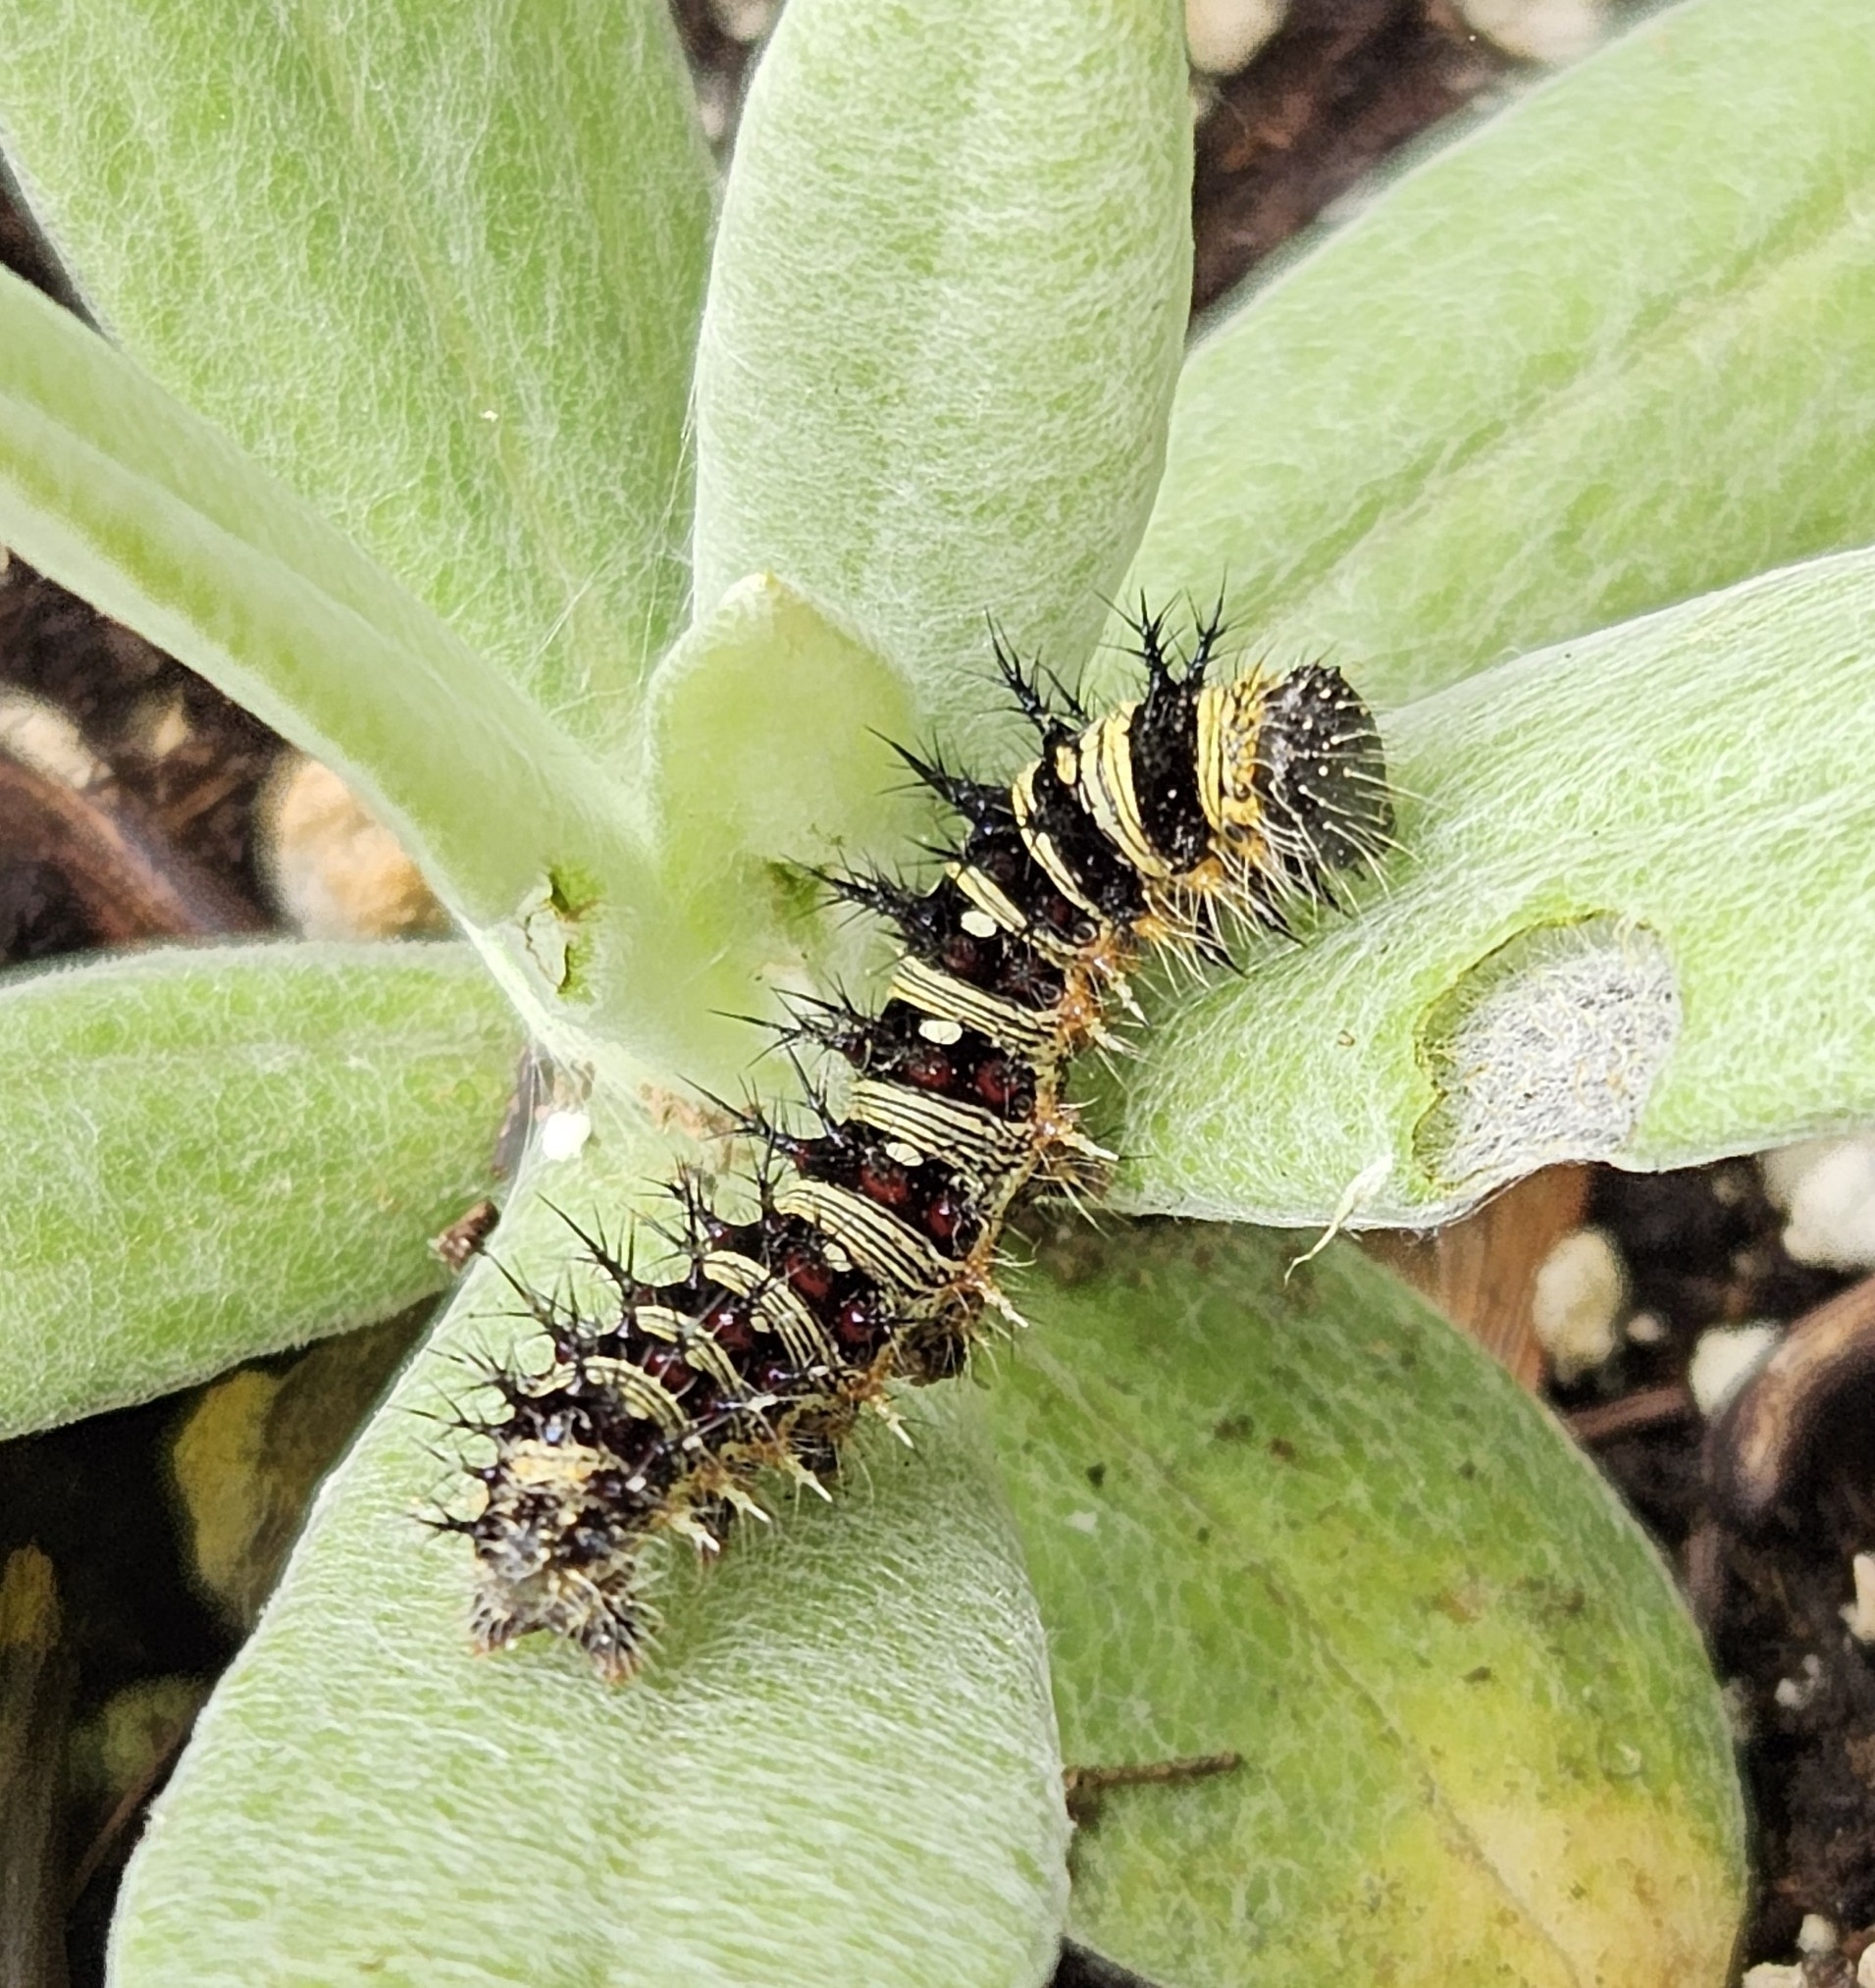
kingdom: Animalia
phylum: Arthropoda
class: Insecta
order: Lepidoptera
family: Nymphalidae
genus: Vanessa
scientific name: Vanessa virginiensis
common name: American lady
